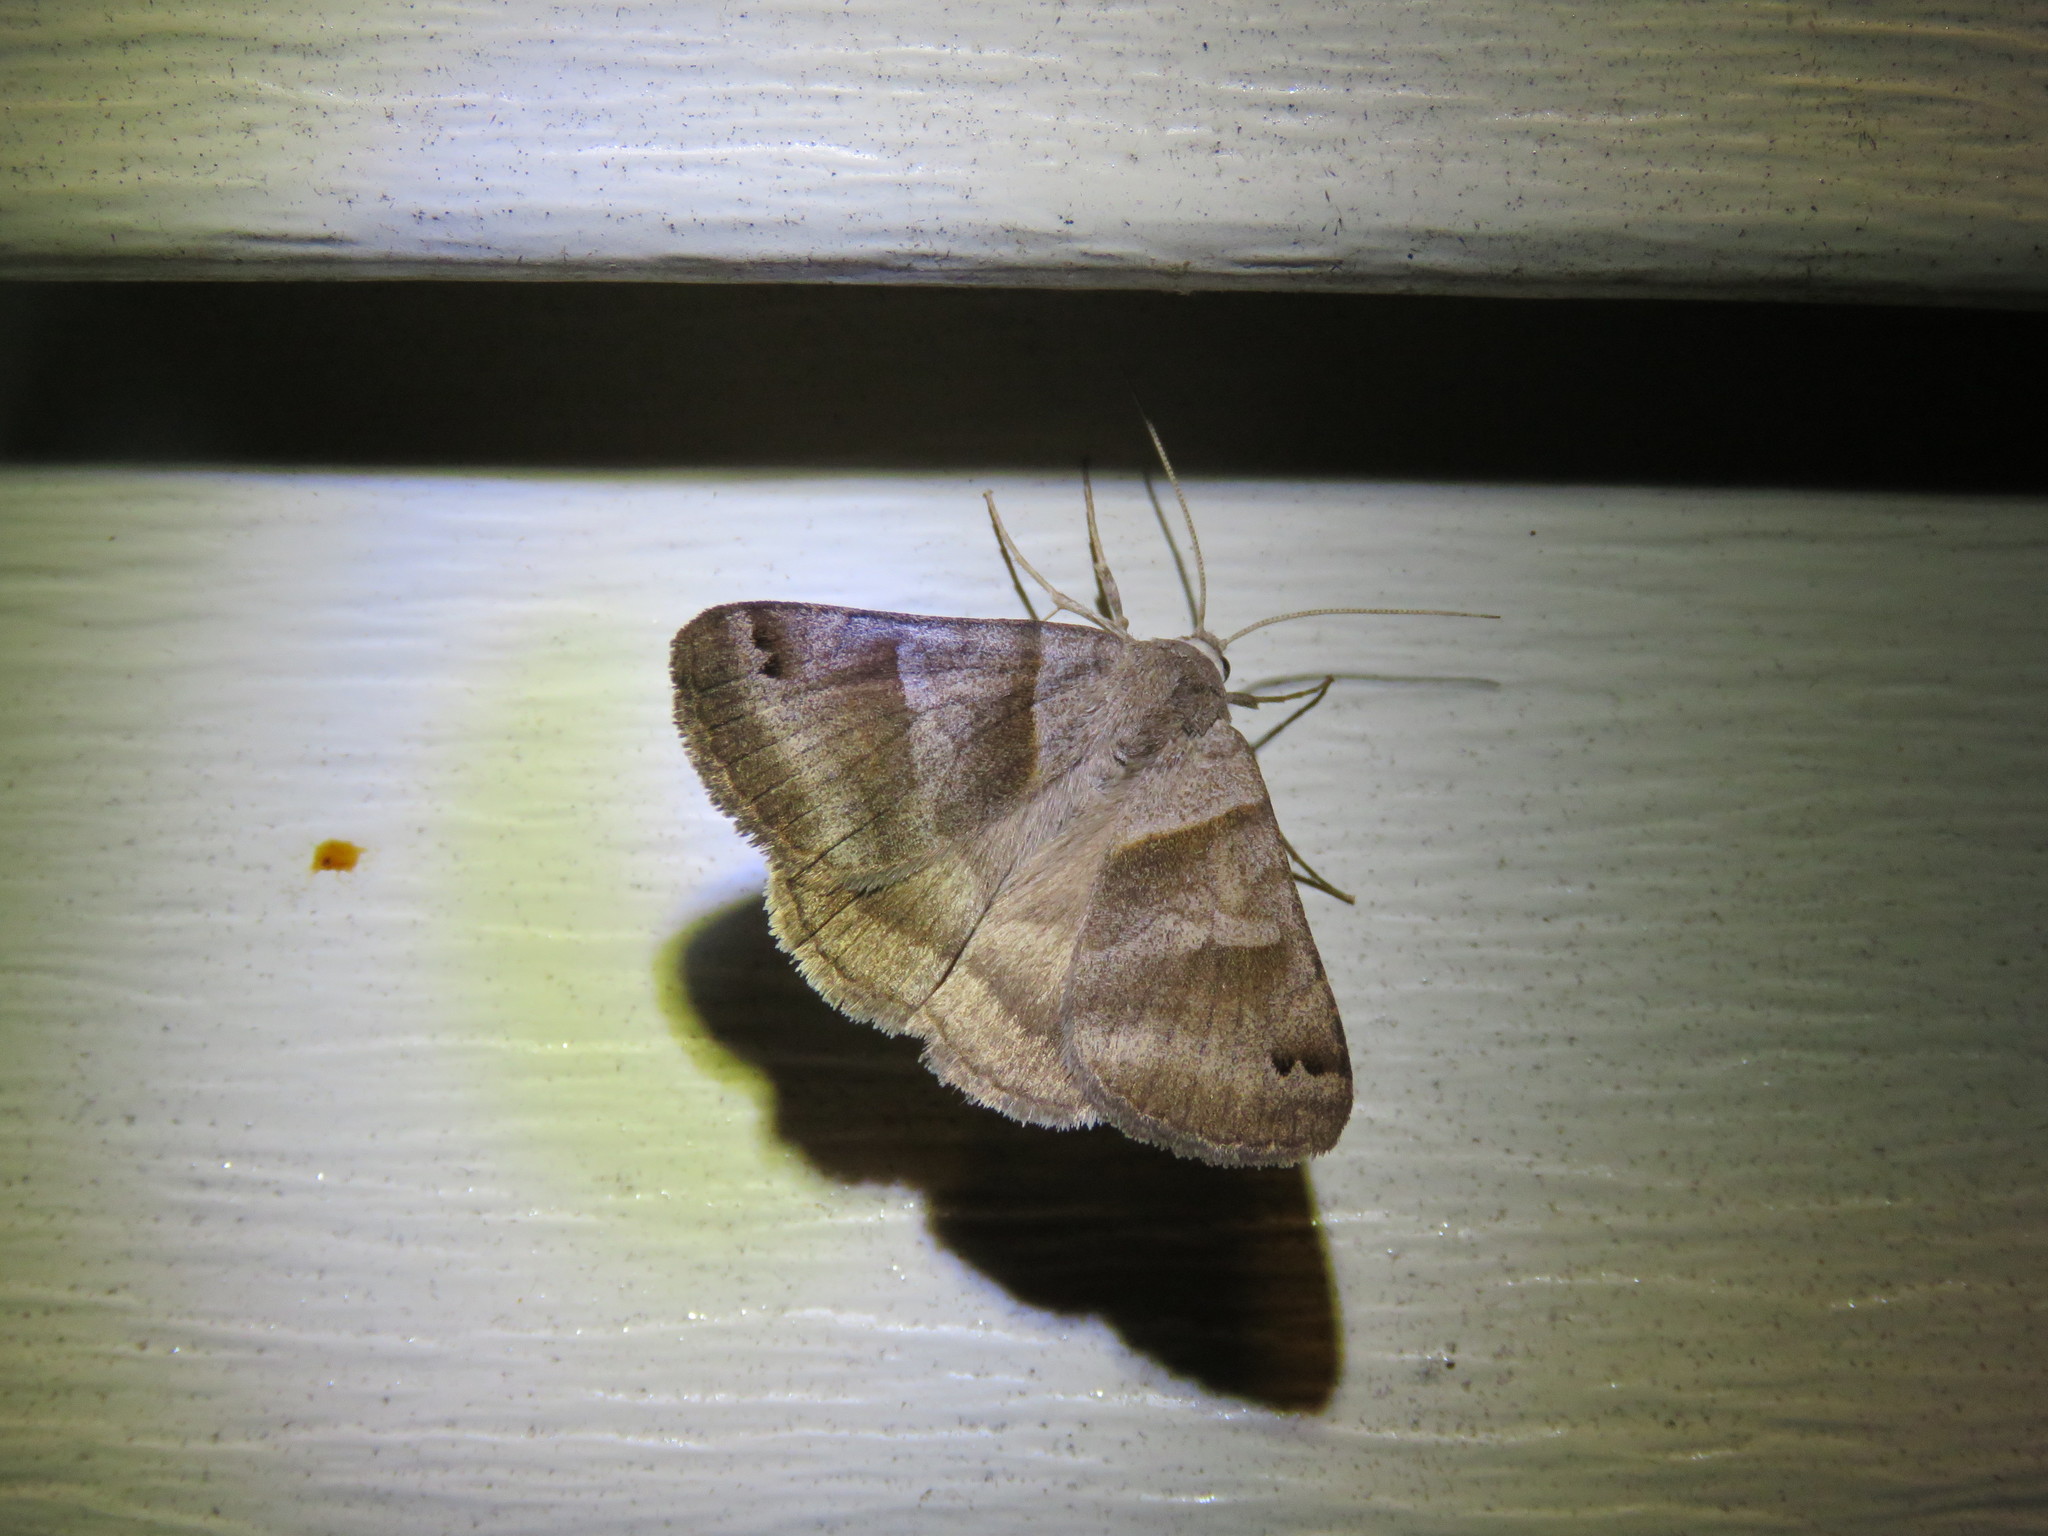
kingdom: Animalia
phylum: Arthropoda
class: Insecta
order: Lepidoptera
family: Erebidae
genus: Caenurgina
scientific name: Caenurgina crassiuscula
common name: Double-barred
